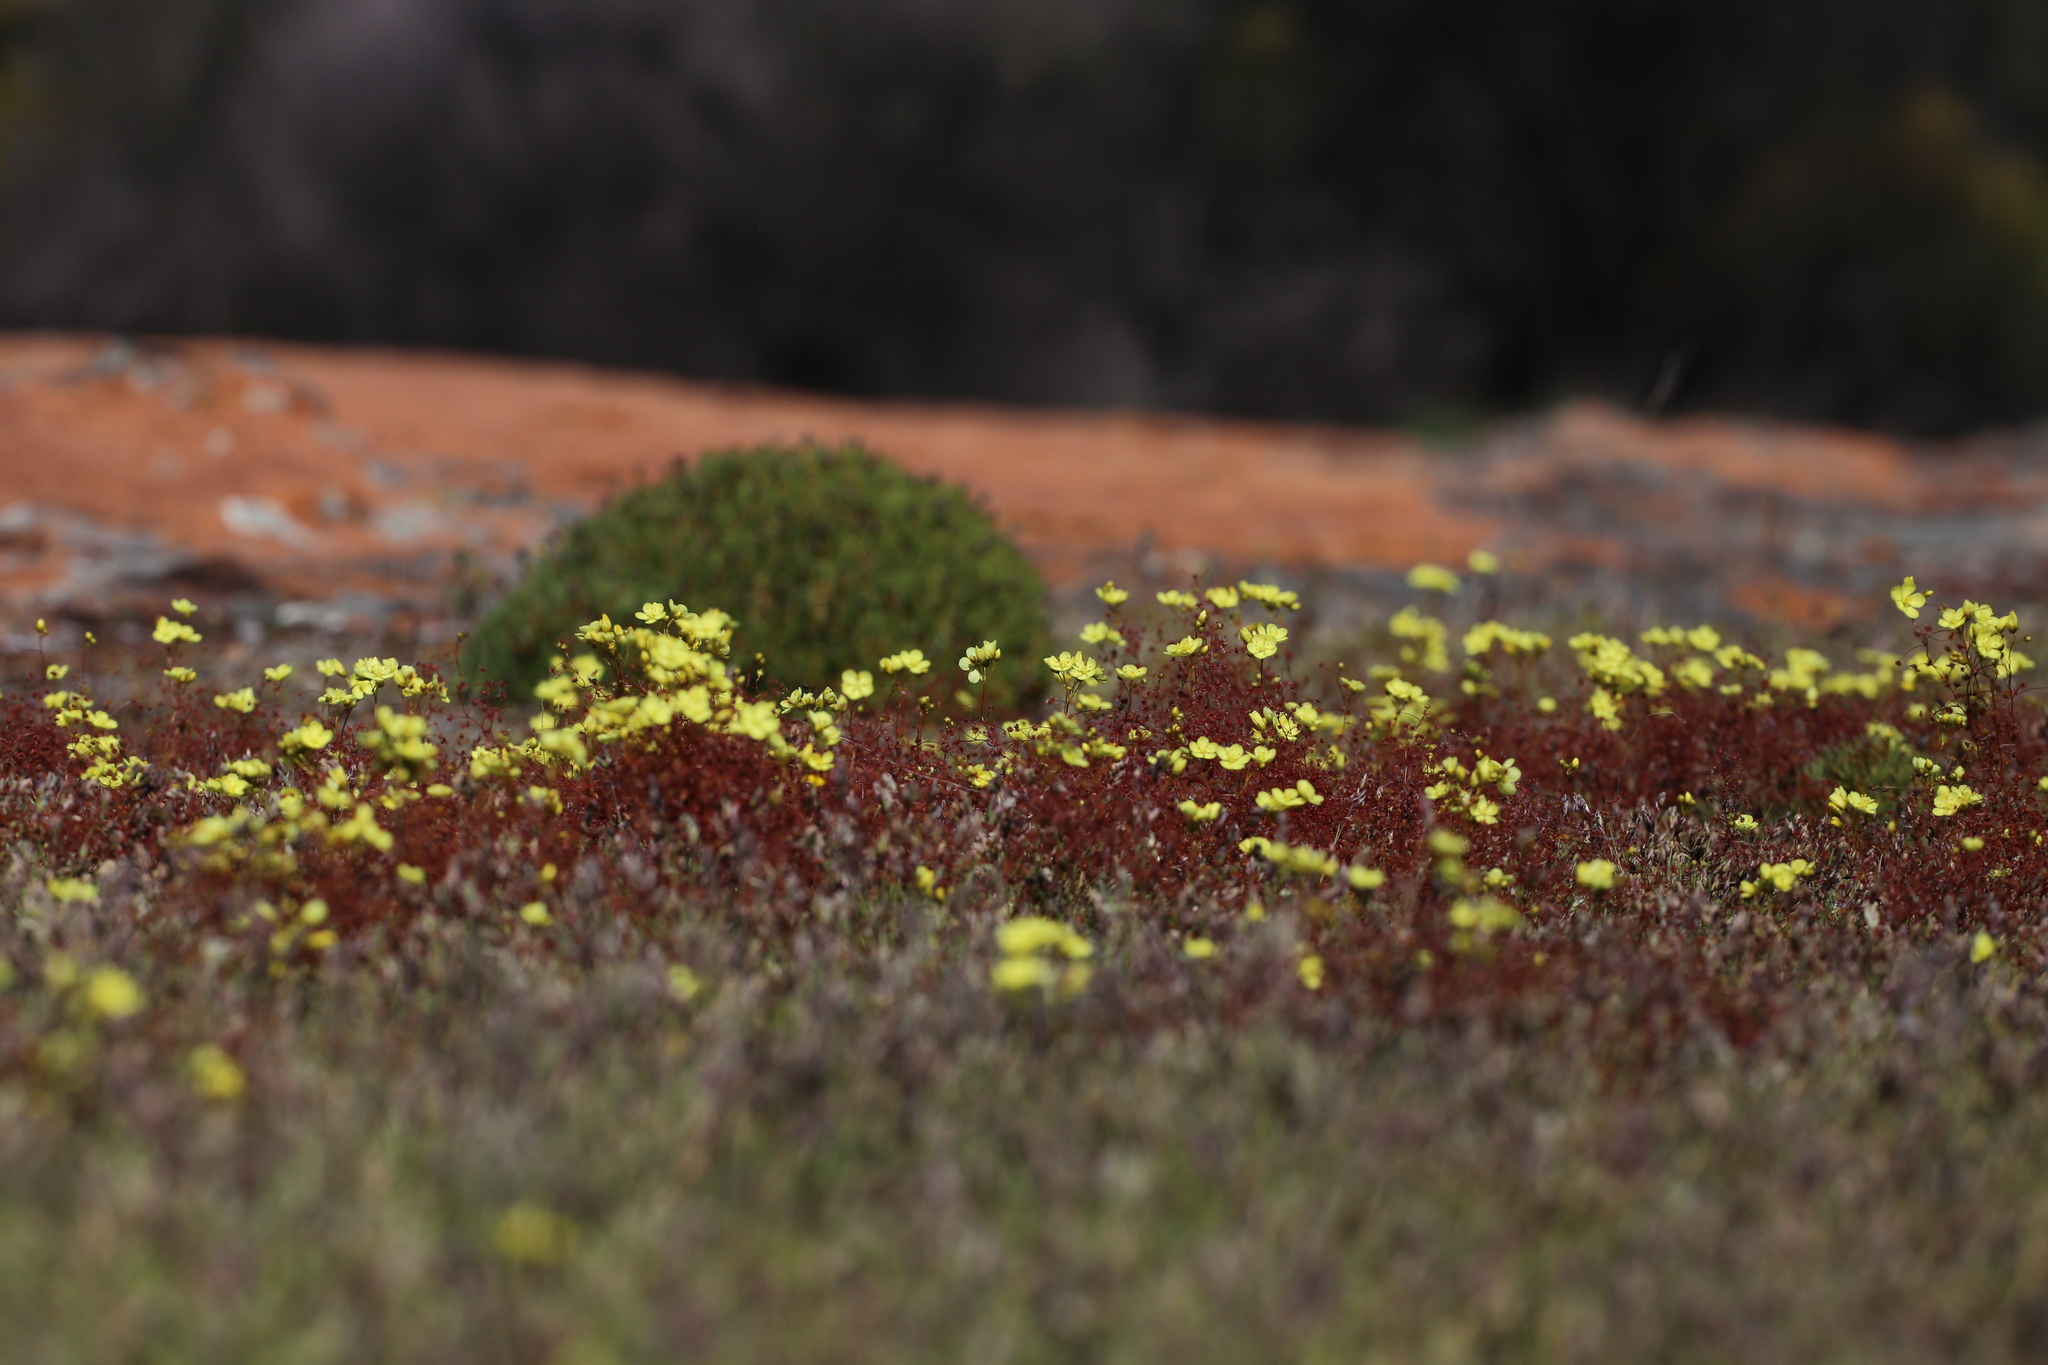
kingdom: Plantae
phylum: Tracheophyta
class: Magnoliopsida
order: Caryophyllales
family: Droseraceae
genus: Drosera
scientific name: Drosera moorei
